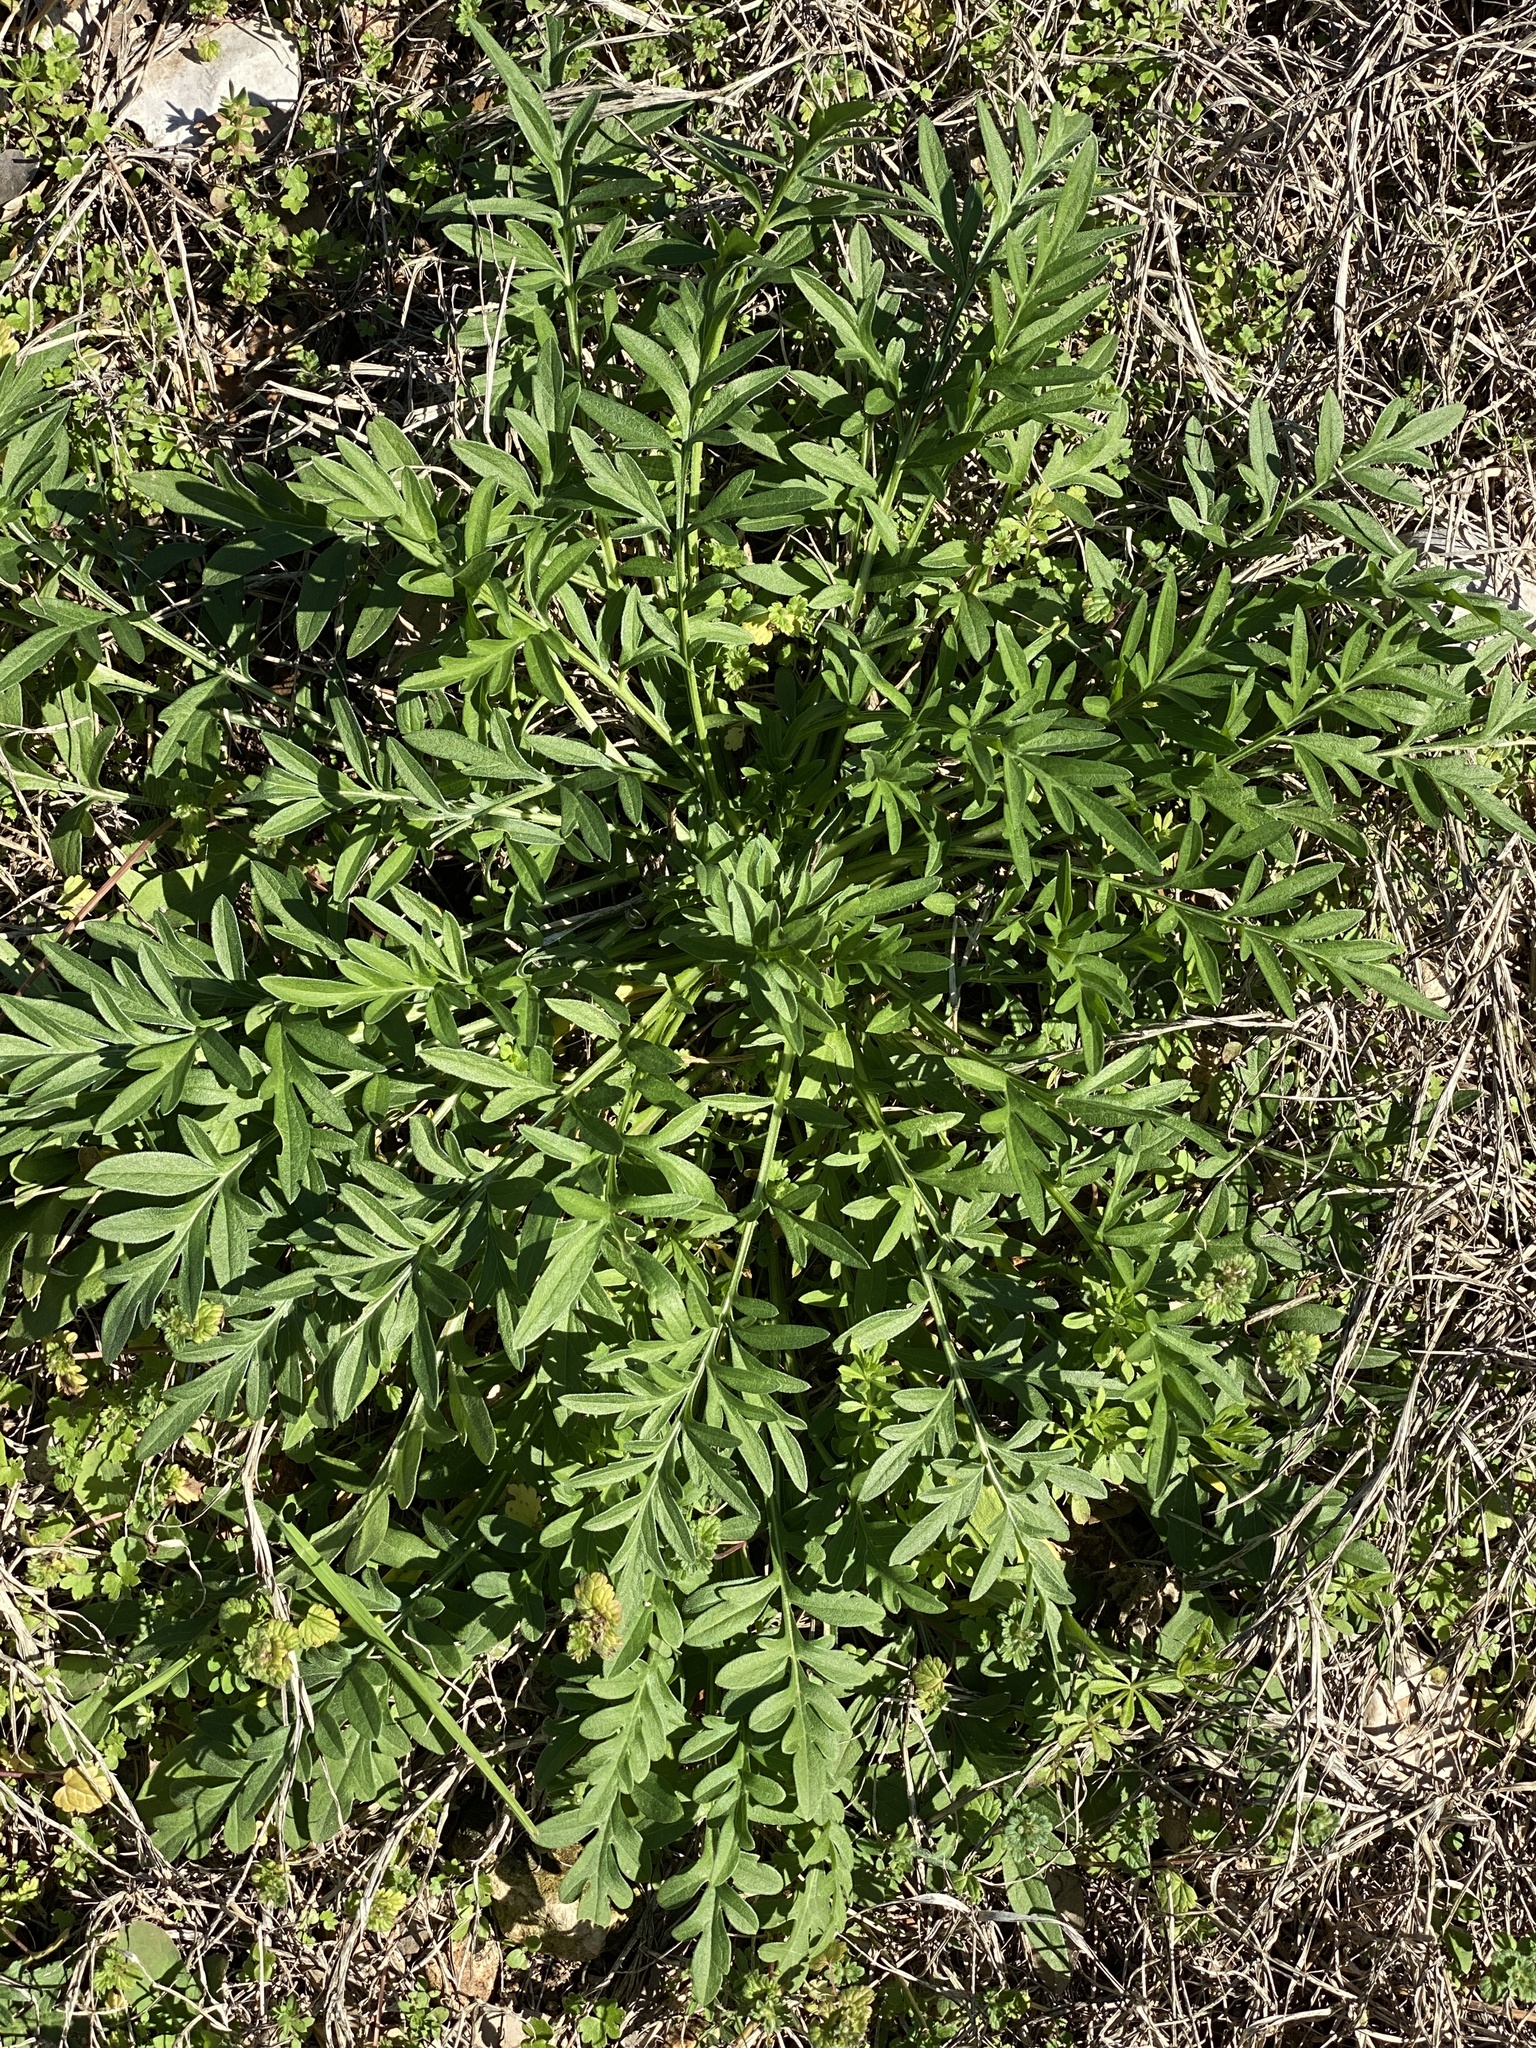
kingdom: Plantae
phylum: Tracheophyta
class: Magnoliopsida
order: Asterales
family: Asteraceae
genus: Ratibida
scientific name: Ratibida columnifera
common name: Prairie coneflower
